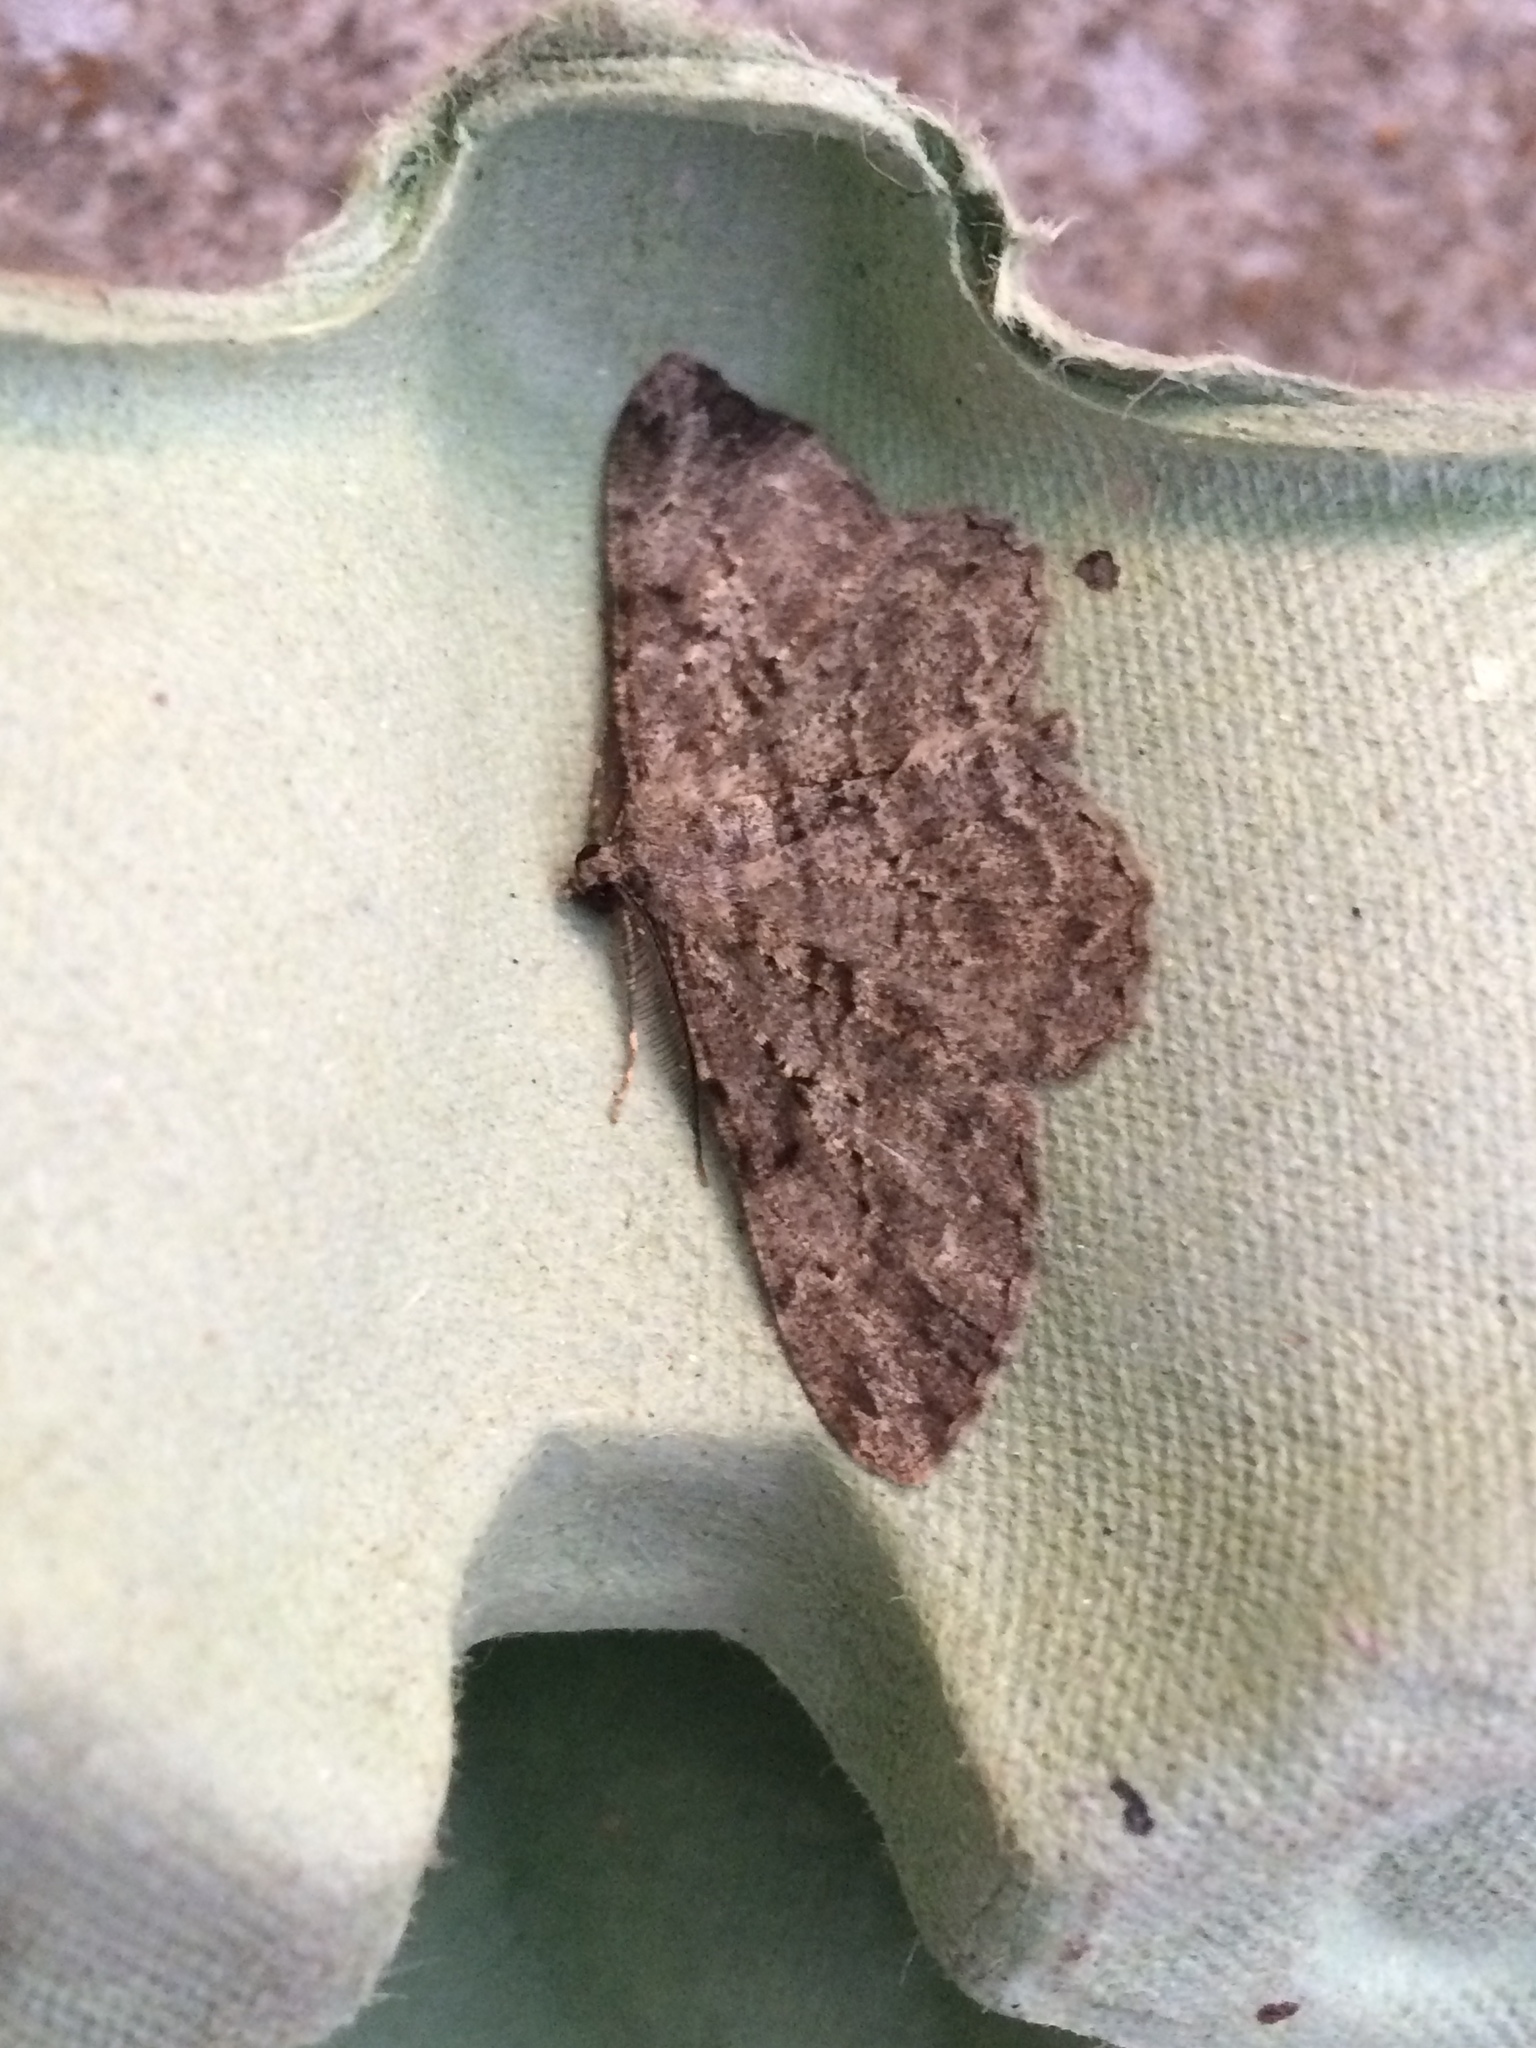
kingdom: Animalia
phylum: Arthropoda
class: Insecta
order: Lepidoptera
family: Geometridae
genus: Peribatodes
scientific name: Peribatodes rhomboidaria
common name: Willow beauty
